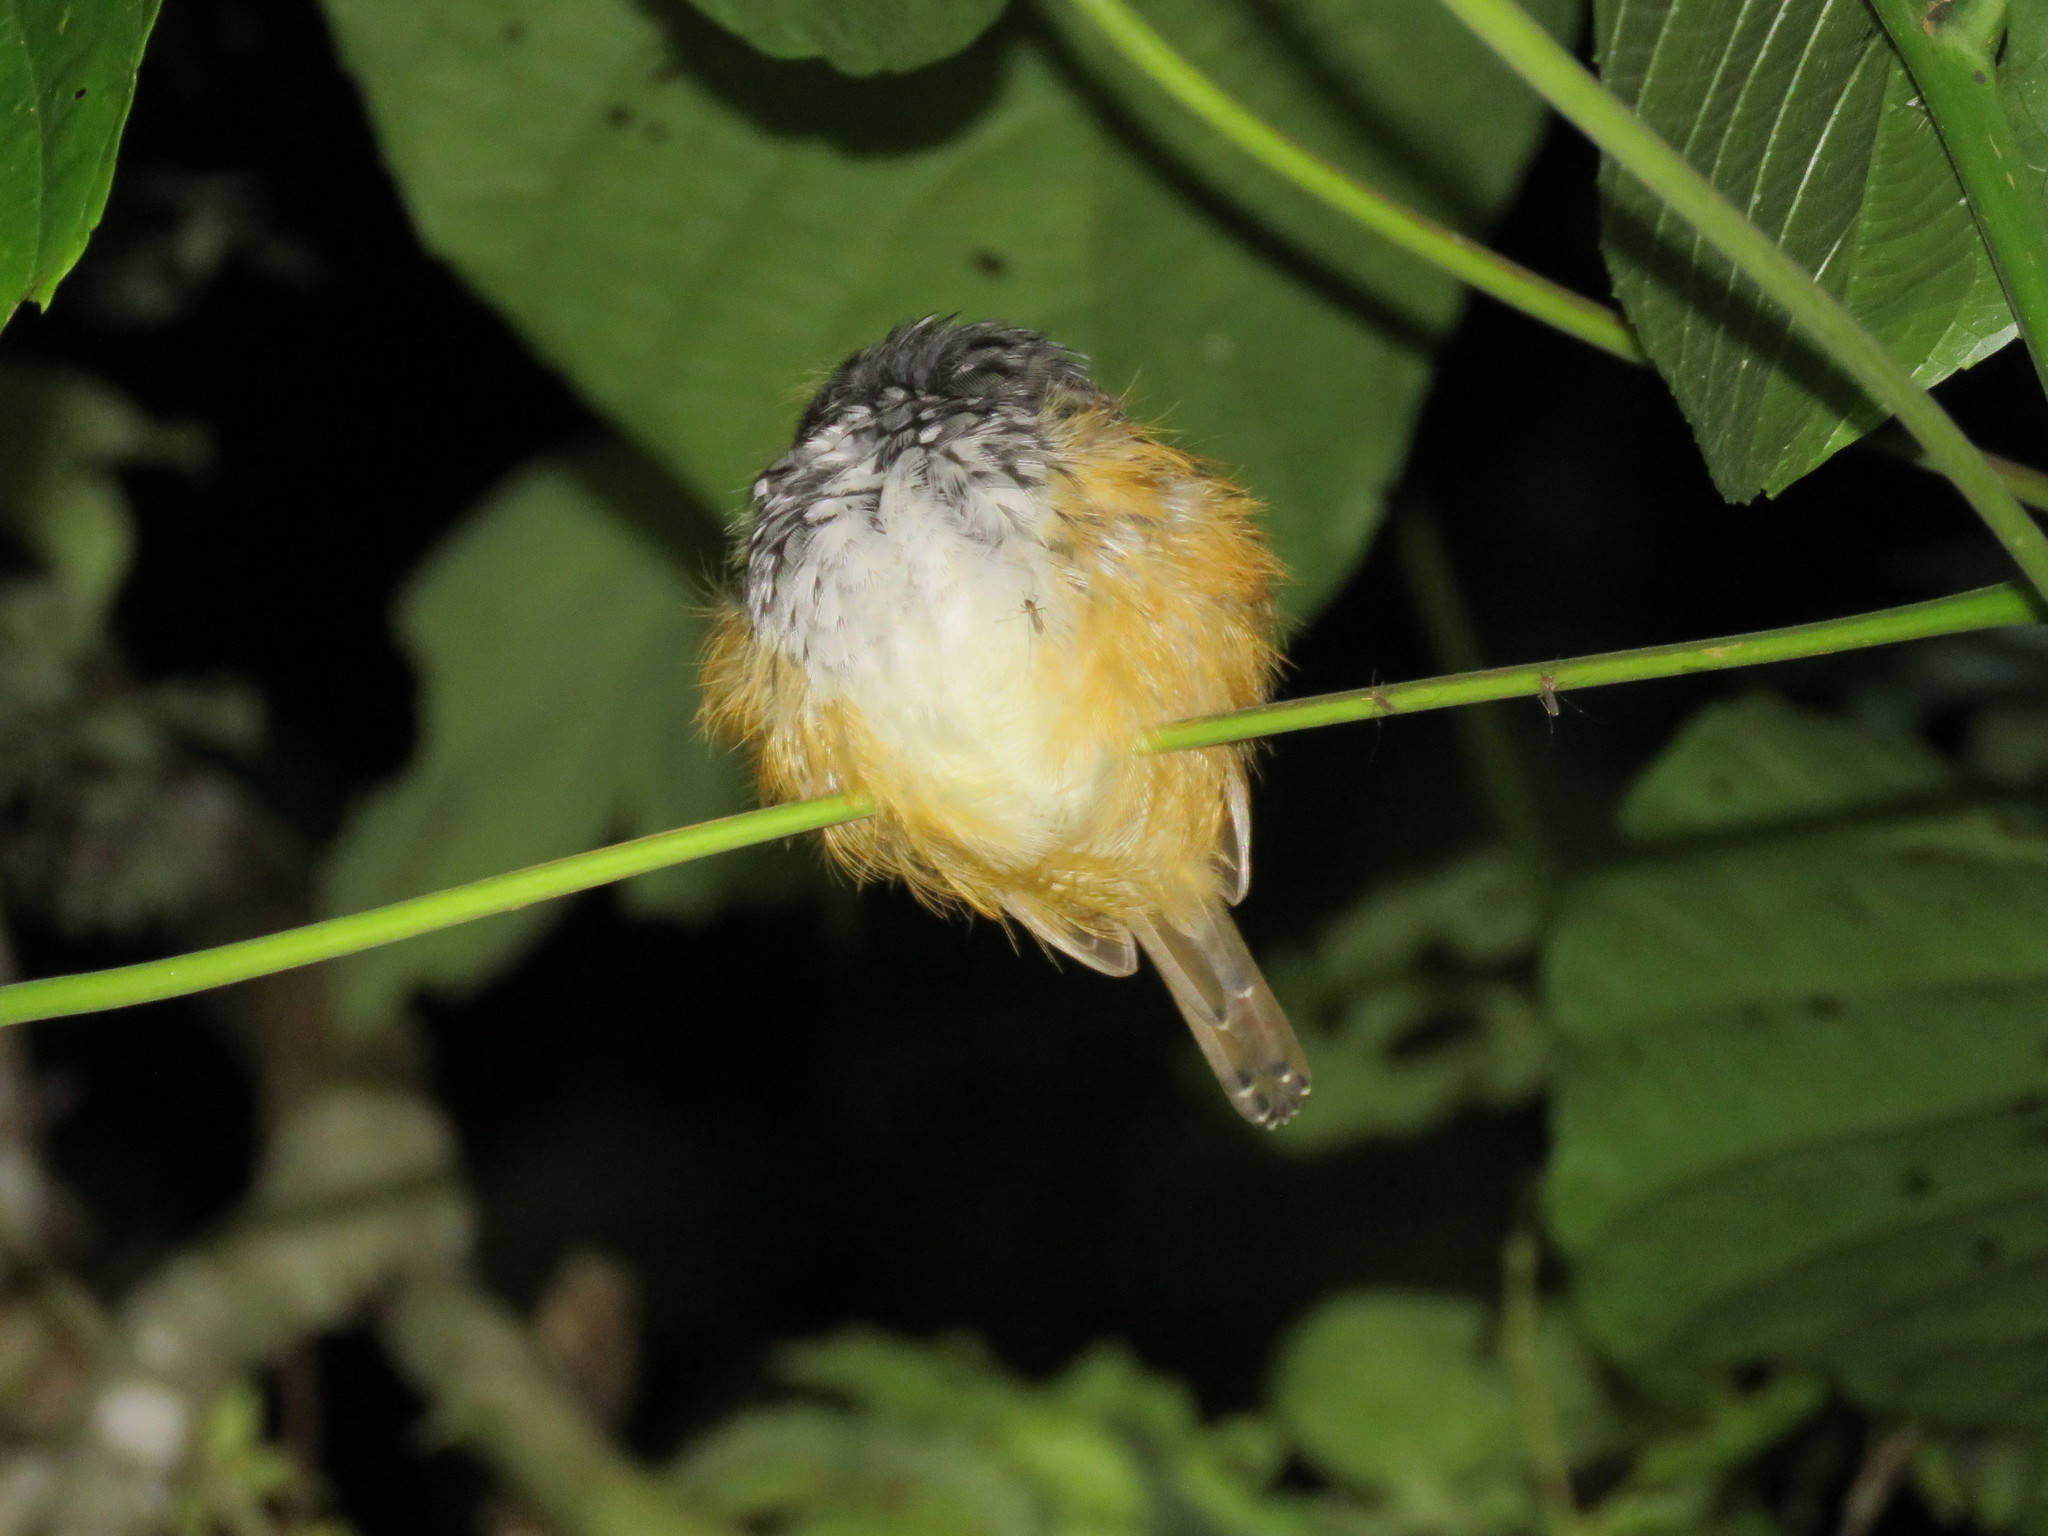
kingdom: Animalia
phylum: Chordata
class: Aves
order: Passeriformes
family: Thamnophilidae
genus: Hypocnemis
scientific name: Hypocnemis peruviana
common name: Peruvian warbling-antbird
